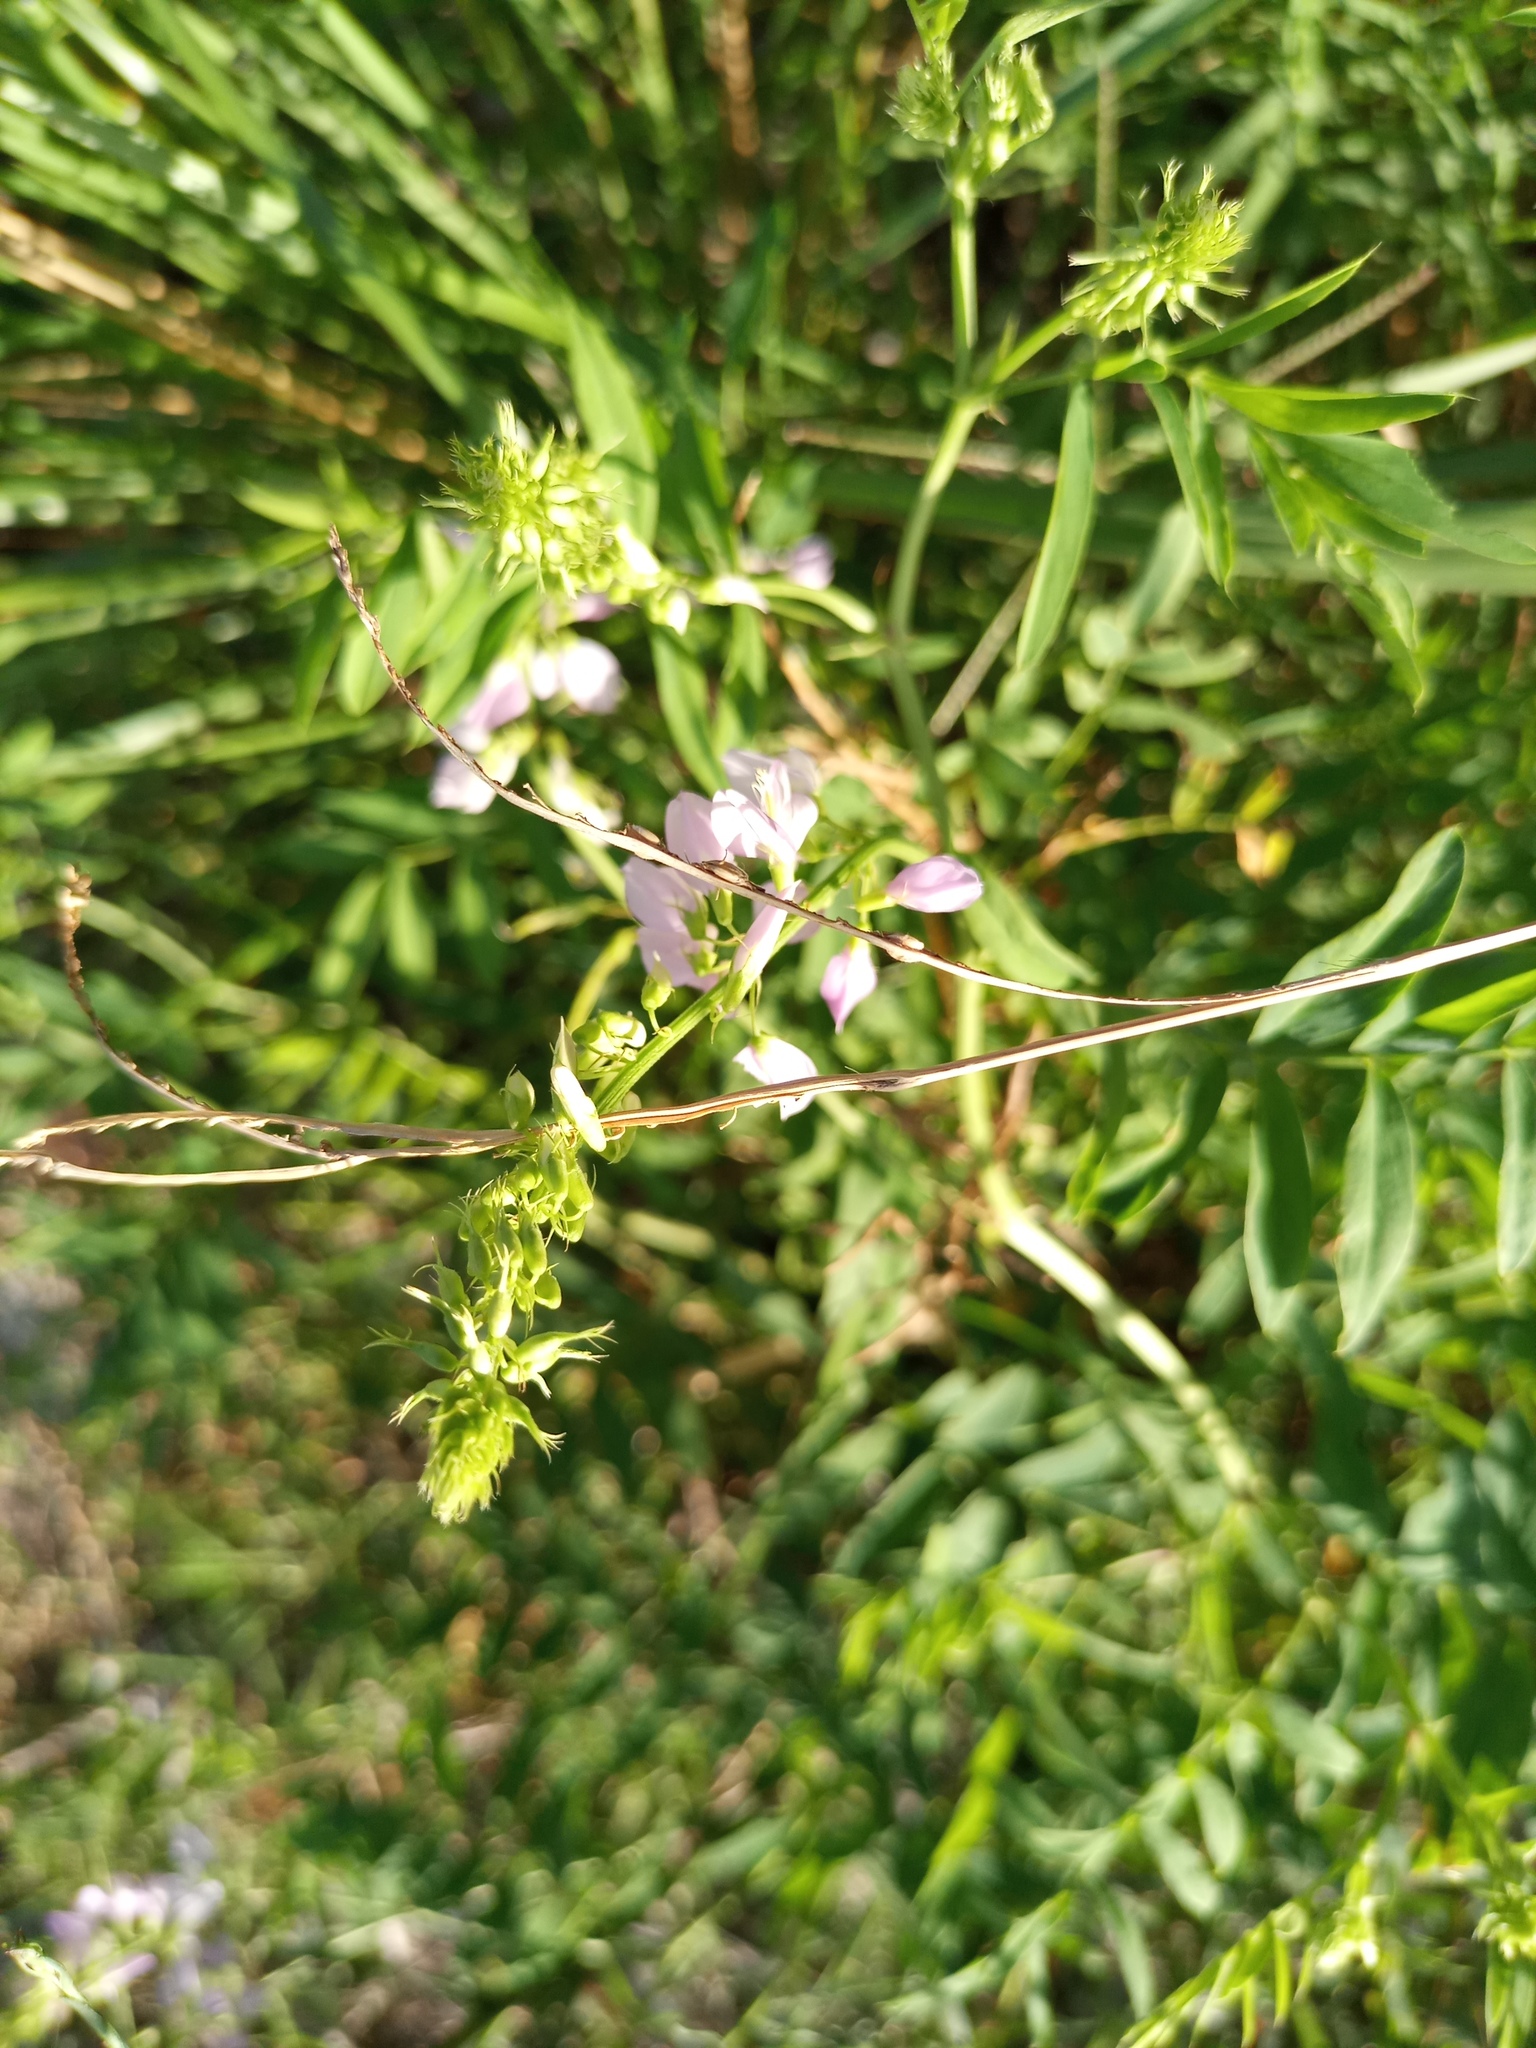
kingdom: Plantae
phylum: Tracheophyta
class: Magnoliopsida
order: Fabales
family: Fabaceae
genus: Galega
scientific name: Galega officinalis
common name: Goat's-rue
